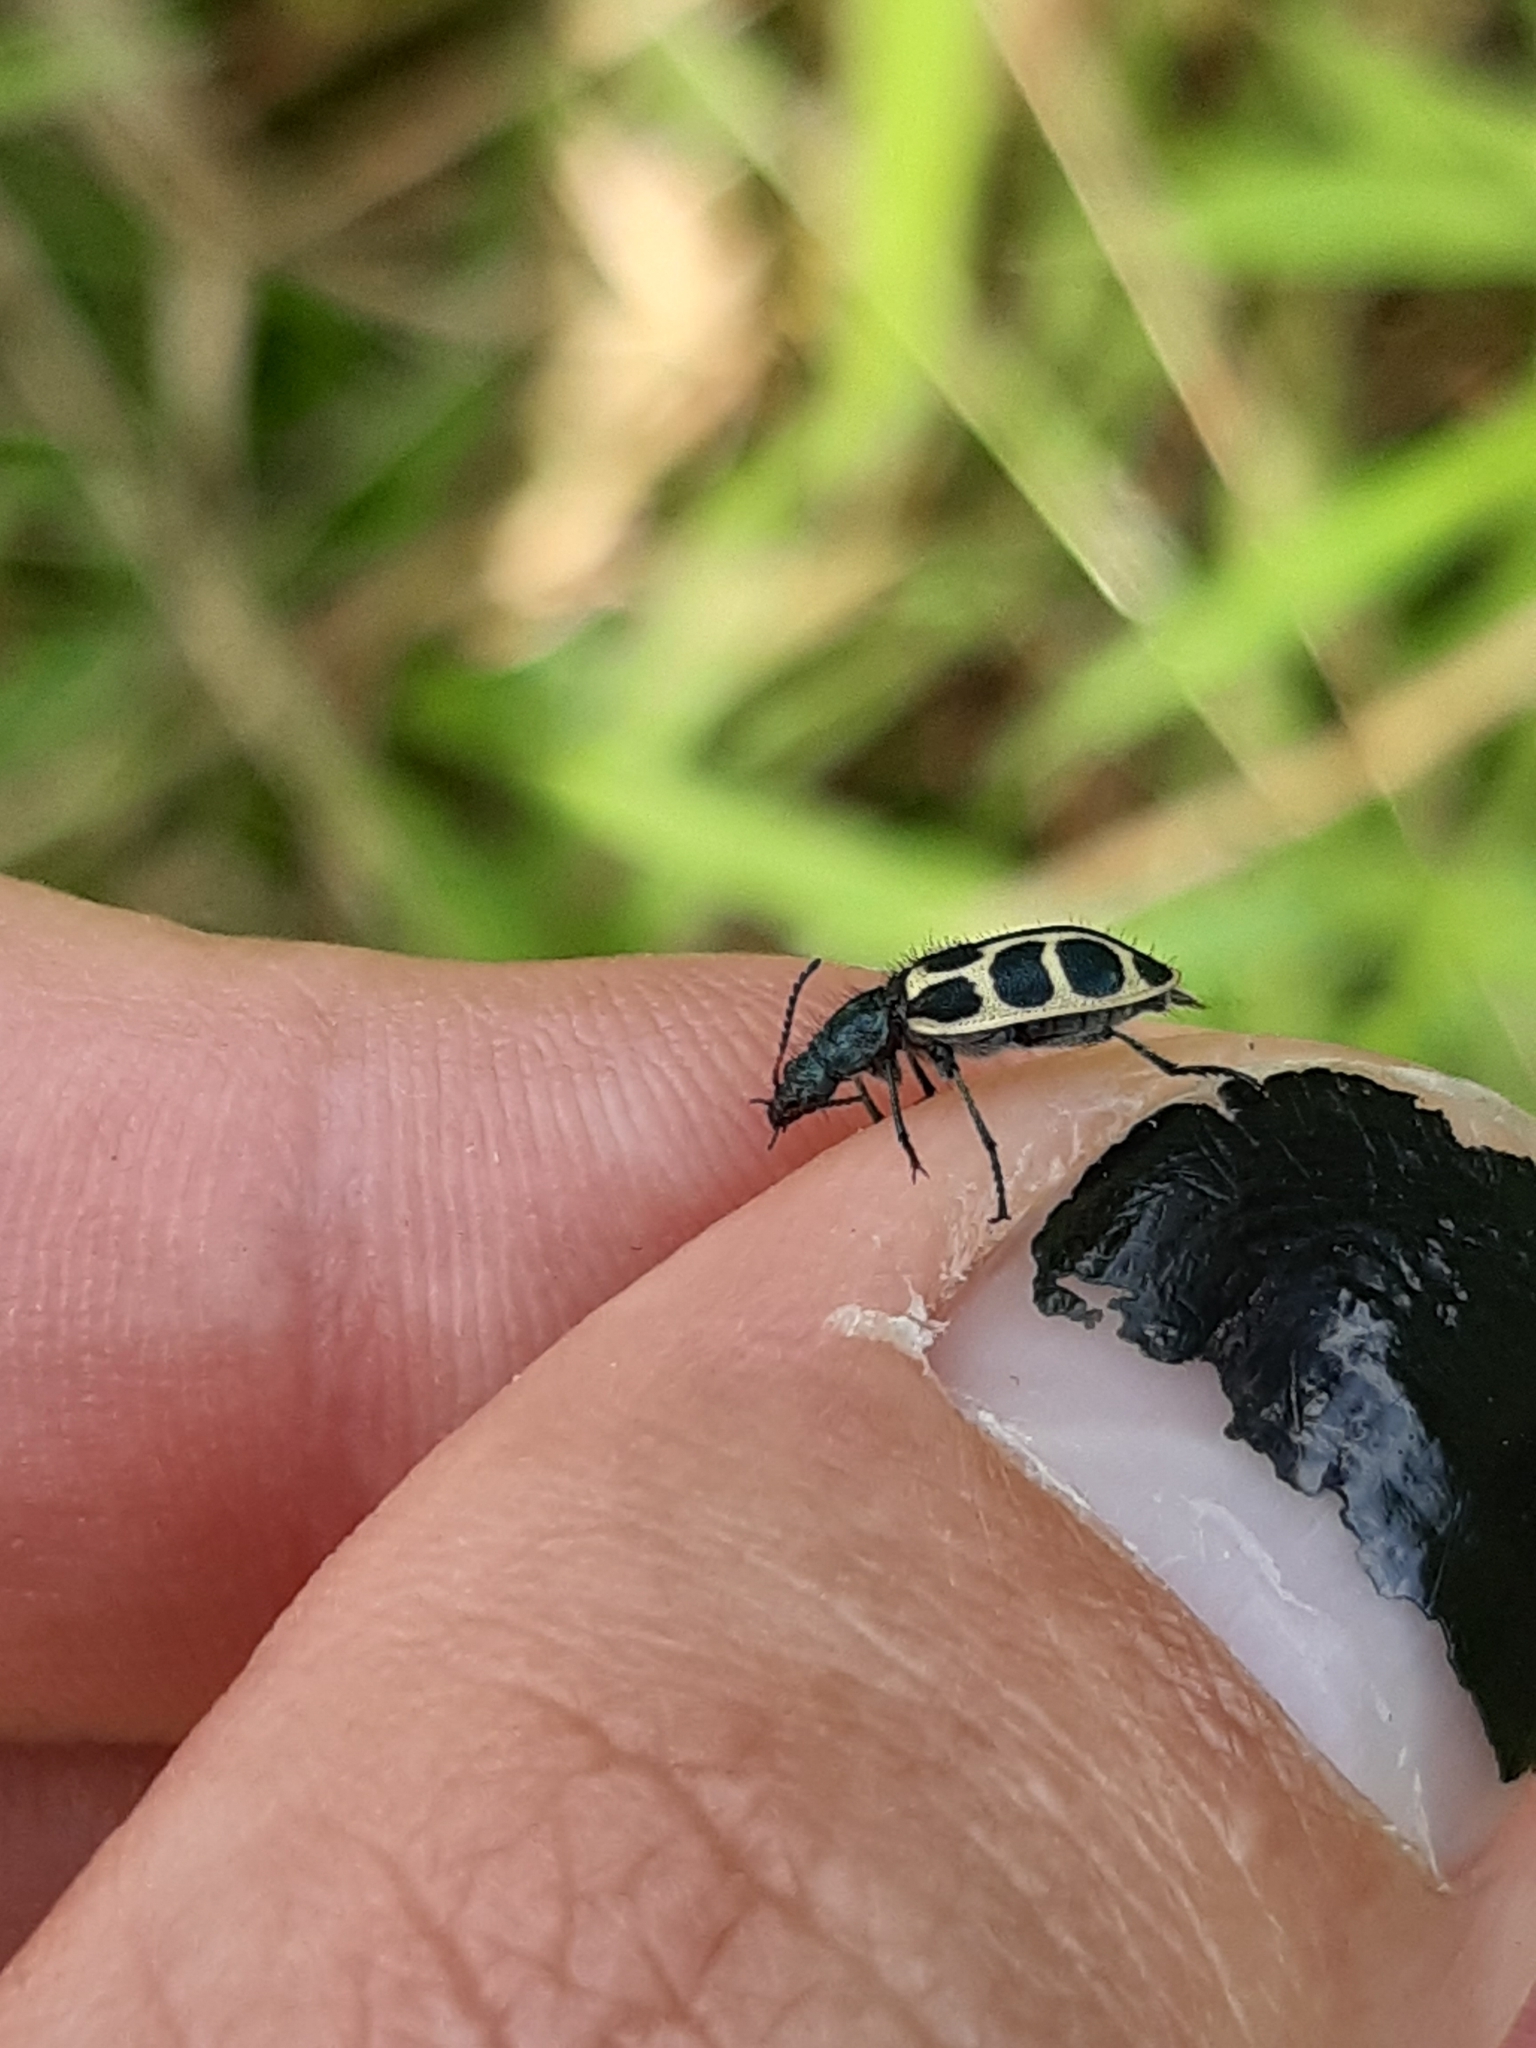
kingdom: Animalia
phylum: Arthropoda
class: Insecta
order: Coleoptera
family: Melyridae
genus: Astylus
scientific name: Astylus
